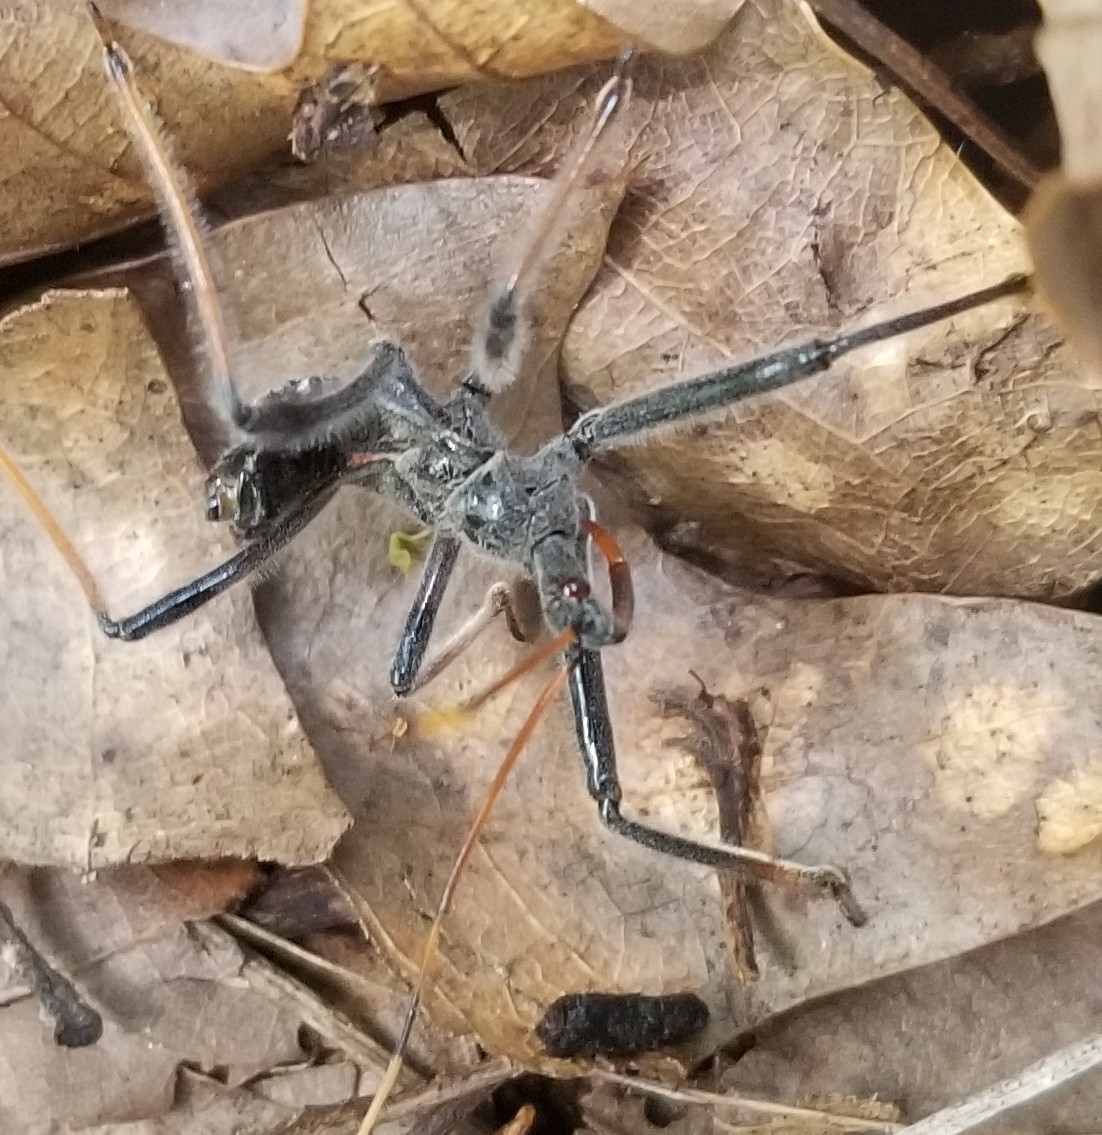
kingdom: Animalia
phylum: Arthropoda
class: Insecta
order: Hemiptera
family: Reduviidae
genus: Arilus
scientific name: Arilus cristatus
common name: North american wheel bug
